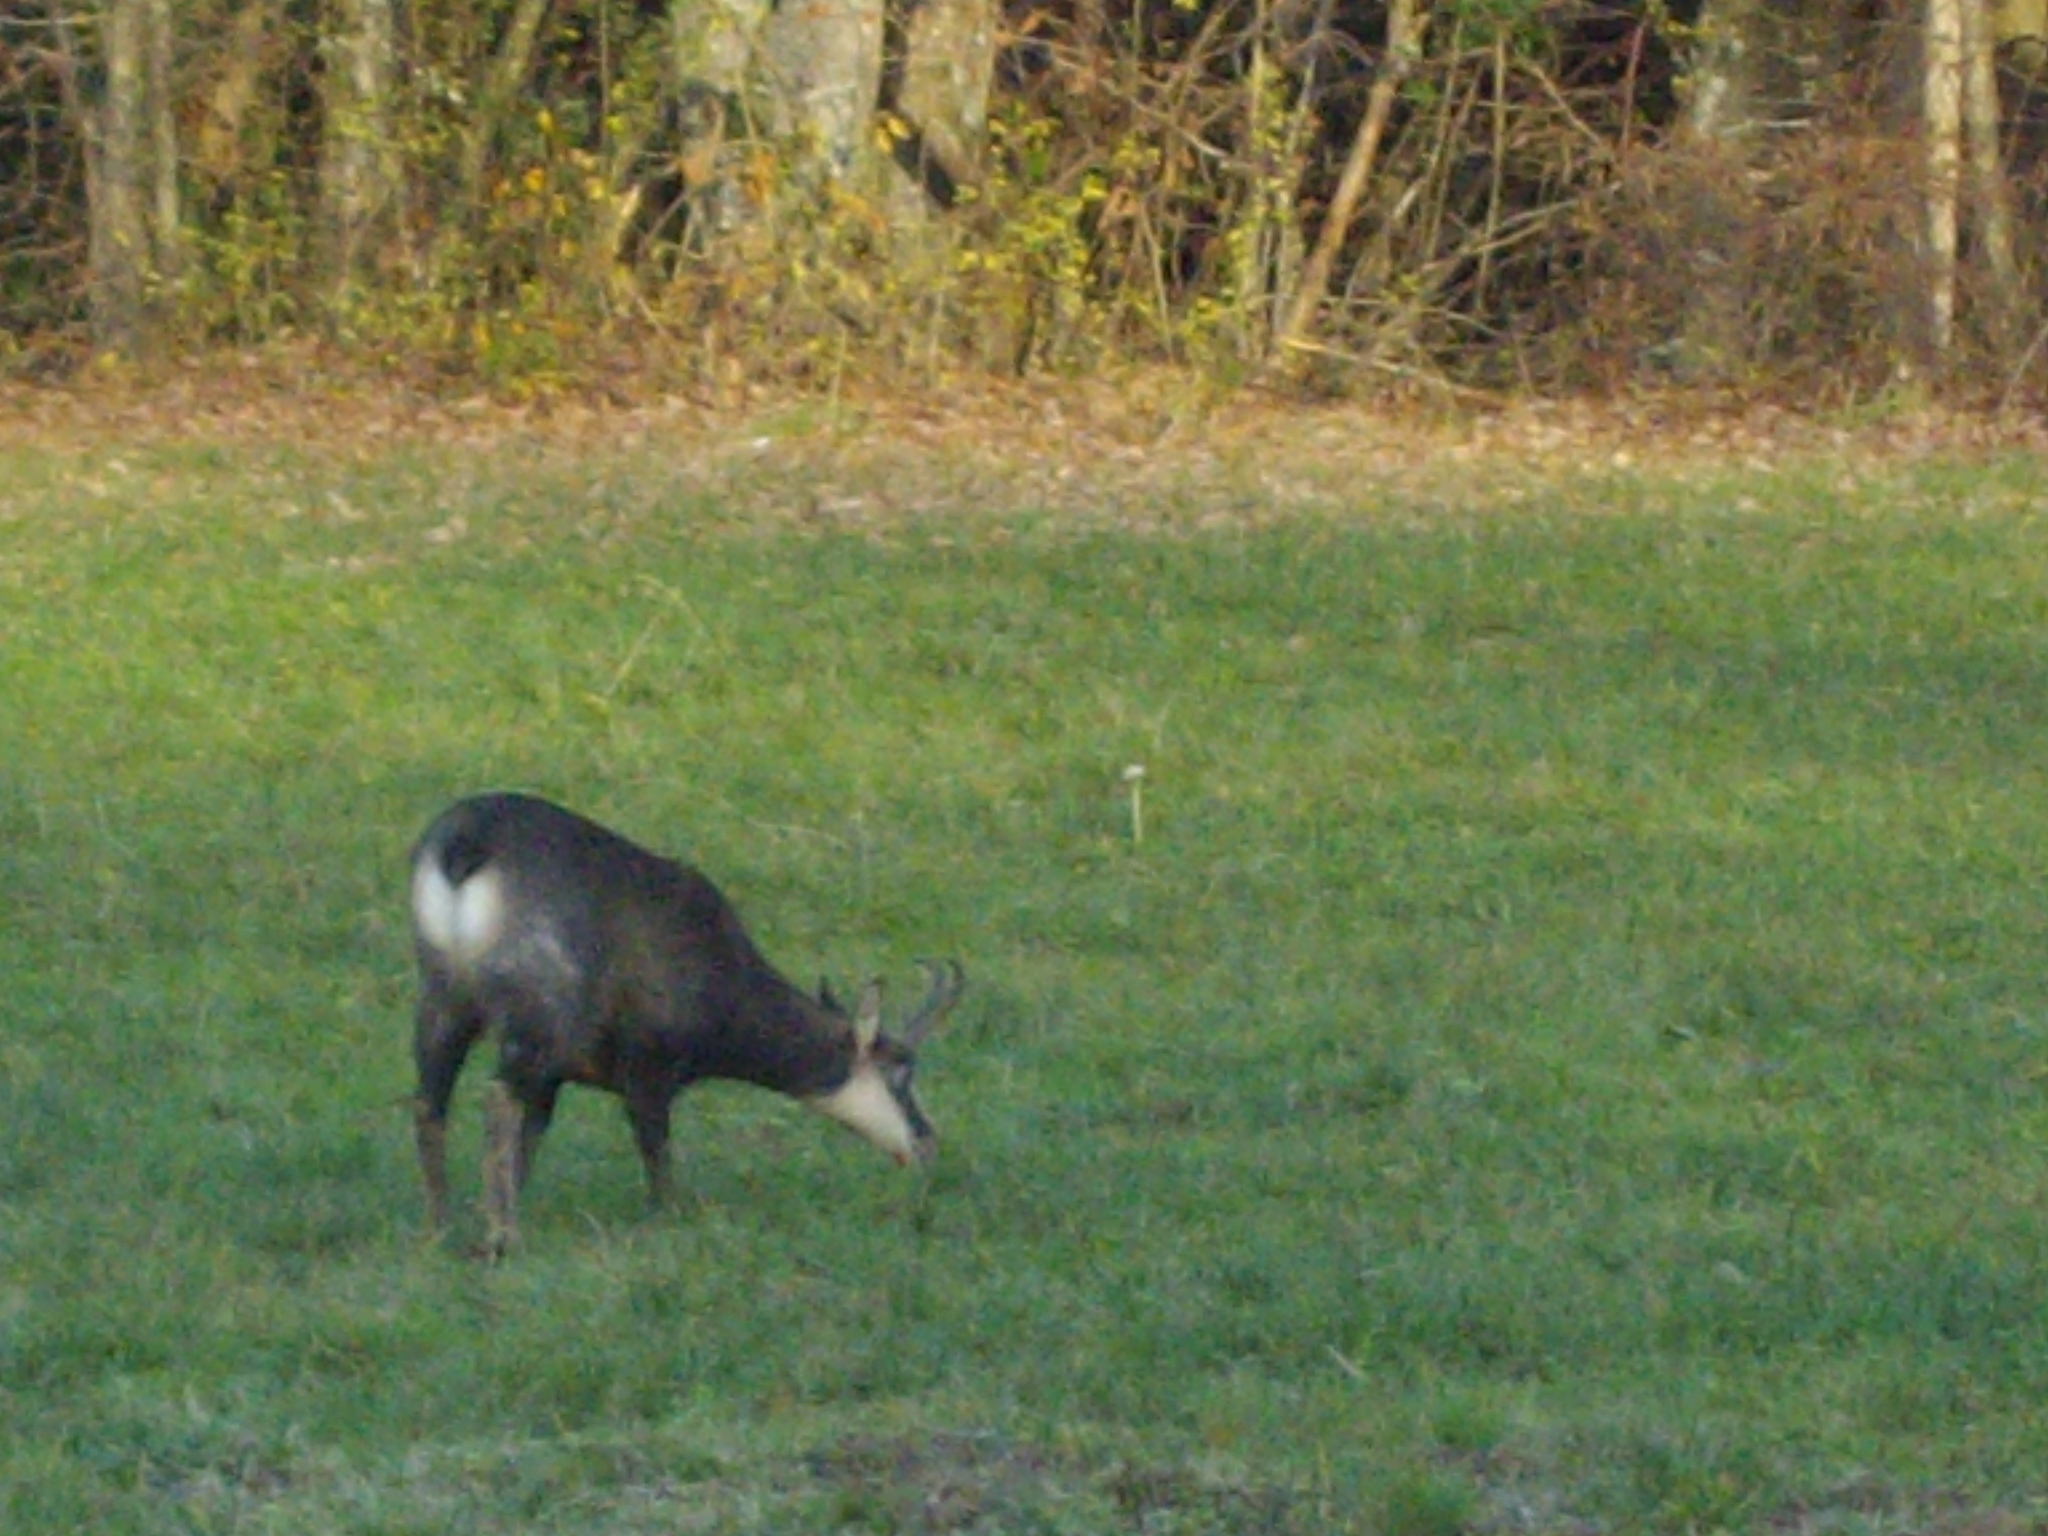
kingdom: Animalia
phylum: Chordata
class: Mammalia
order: Artiodactyla
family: Bovidae
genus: Rupicapra
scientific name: Rupicapra rupicapra
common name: Chamois
